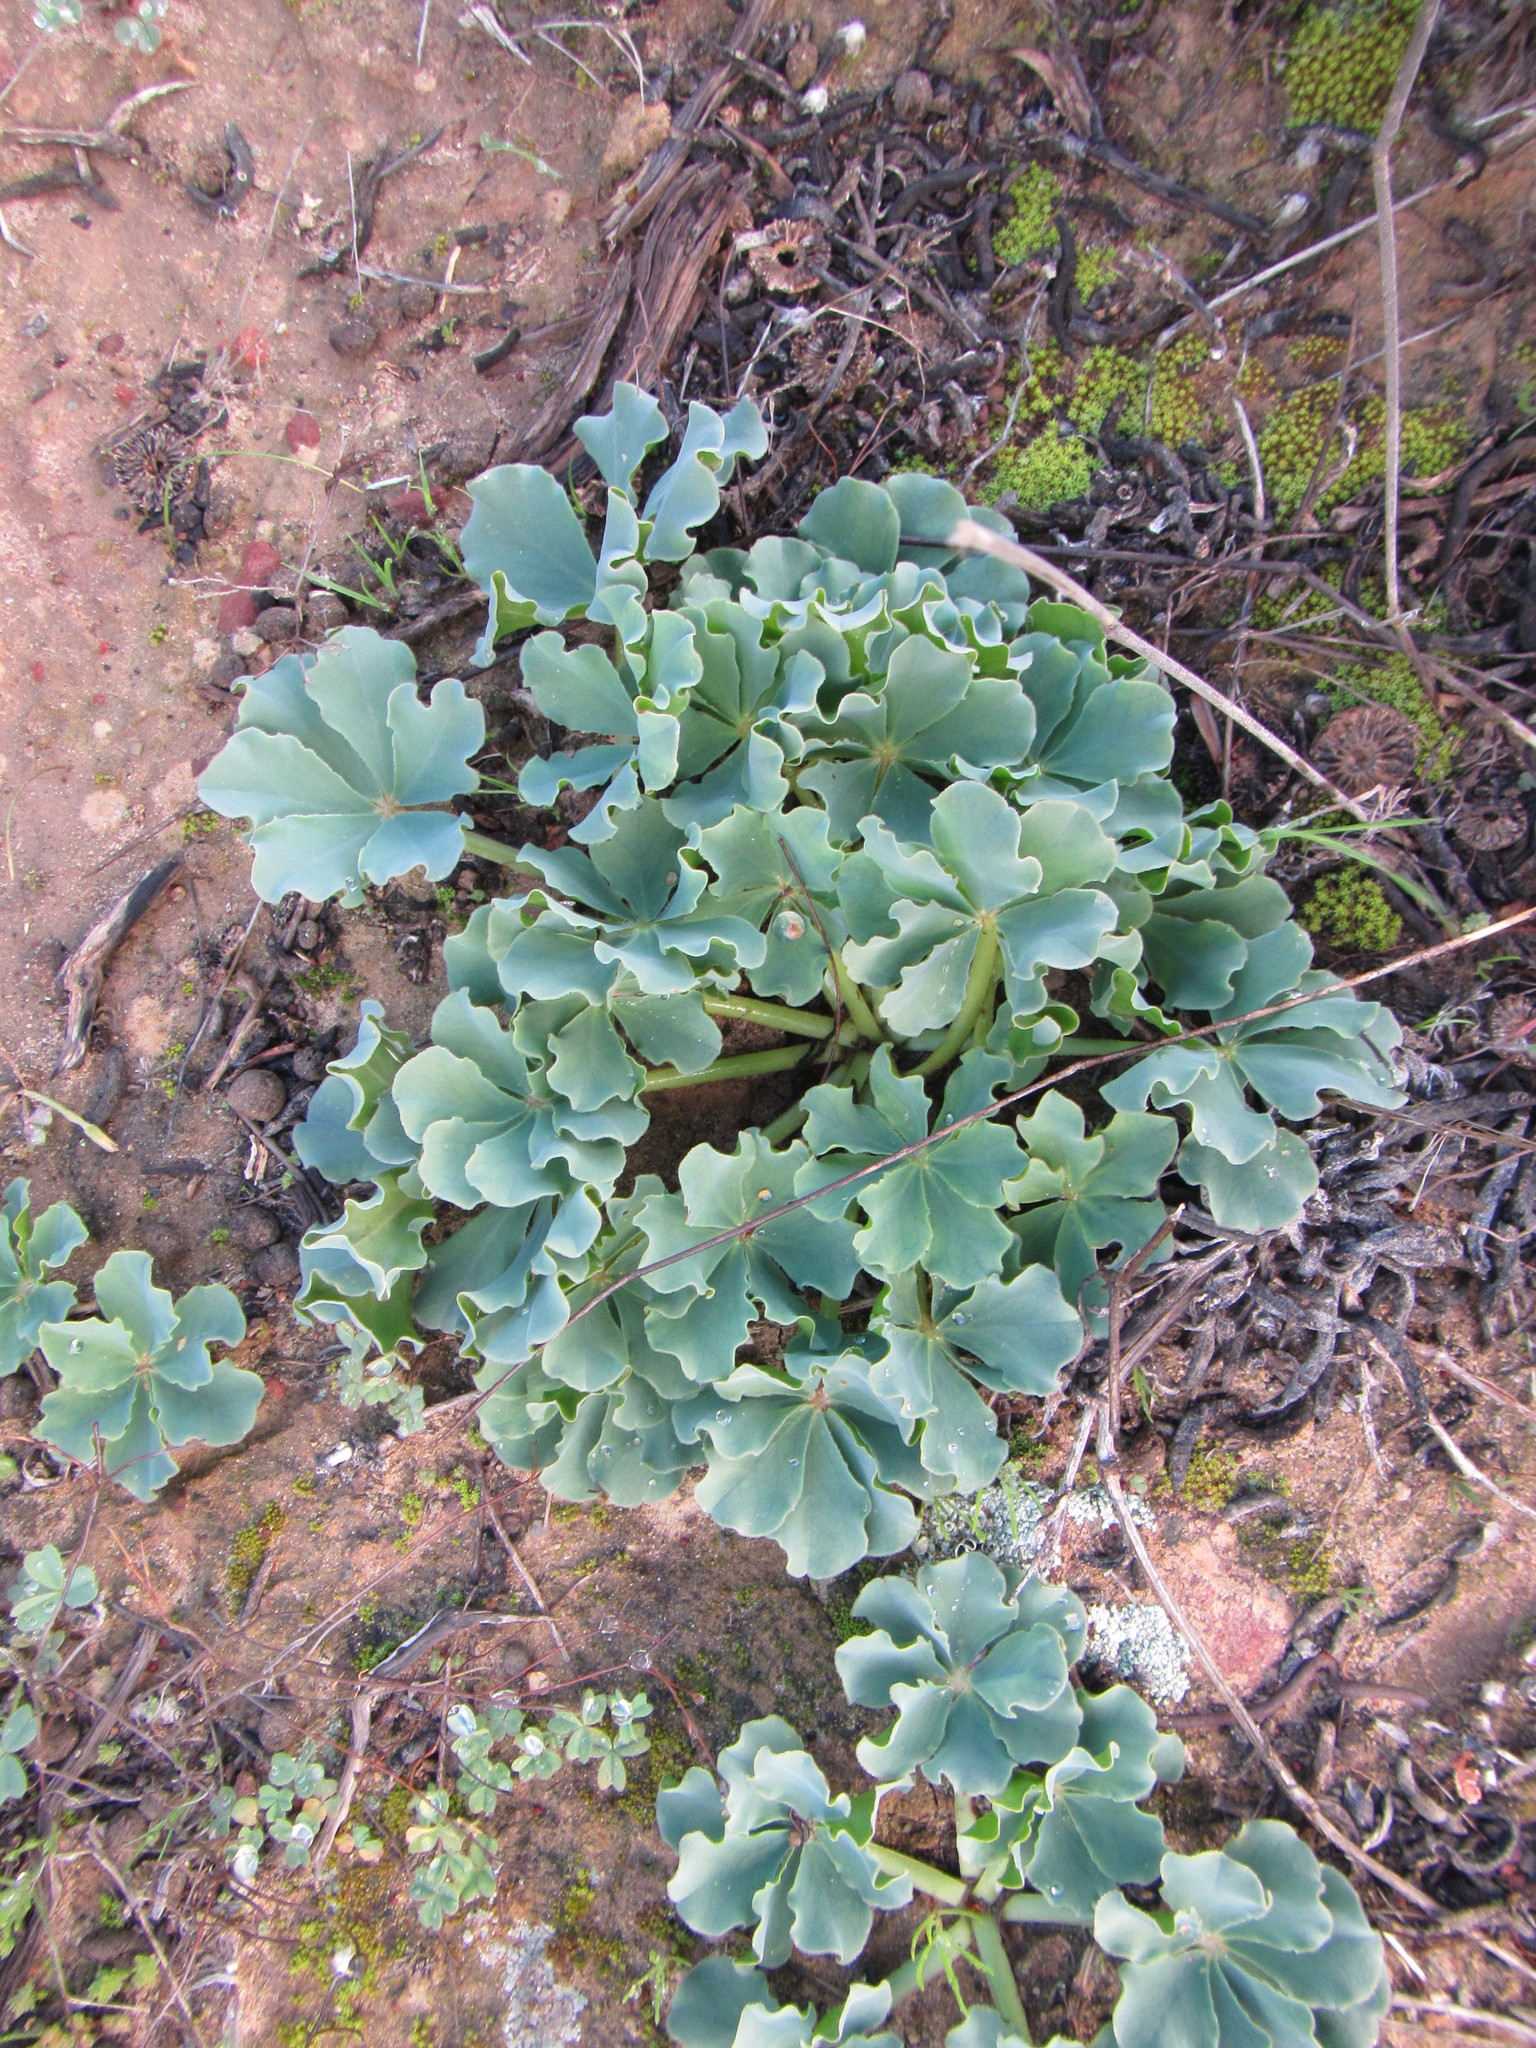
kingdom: Plantae
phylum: Tracheophyta
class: Magnoliopsida
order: Oxalidales
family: Oxalidaceae
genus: Oxalis
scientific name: Oxalis flava
